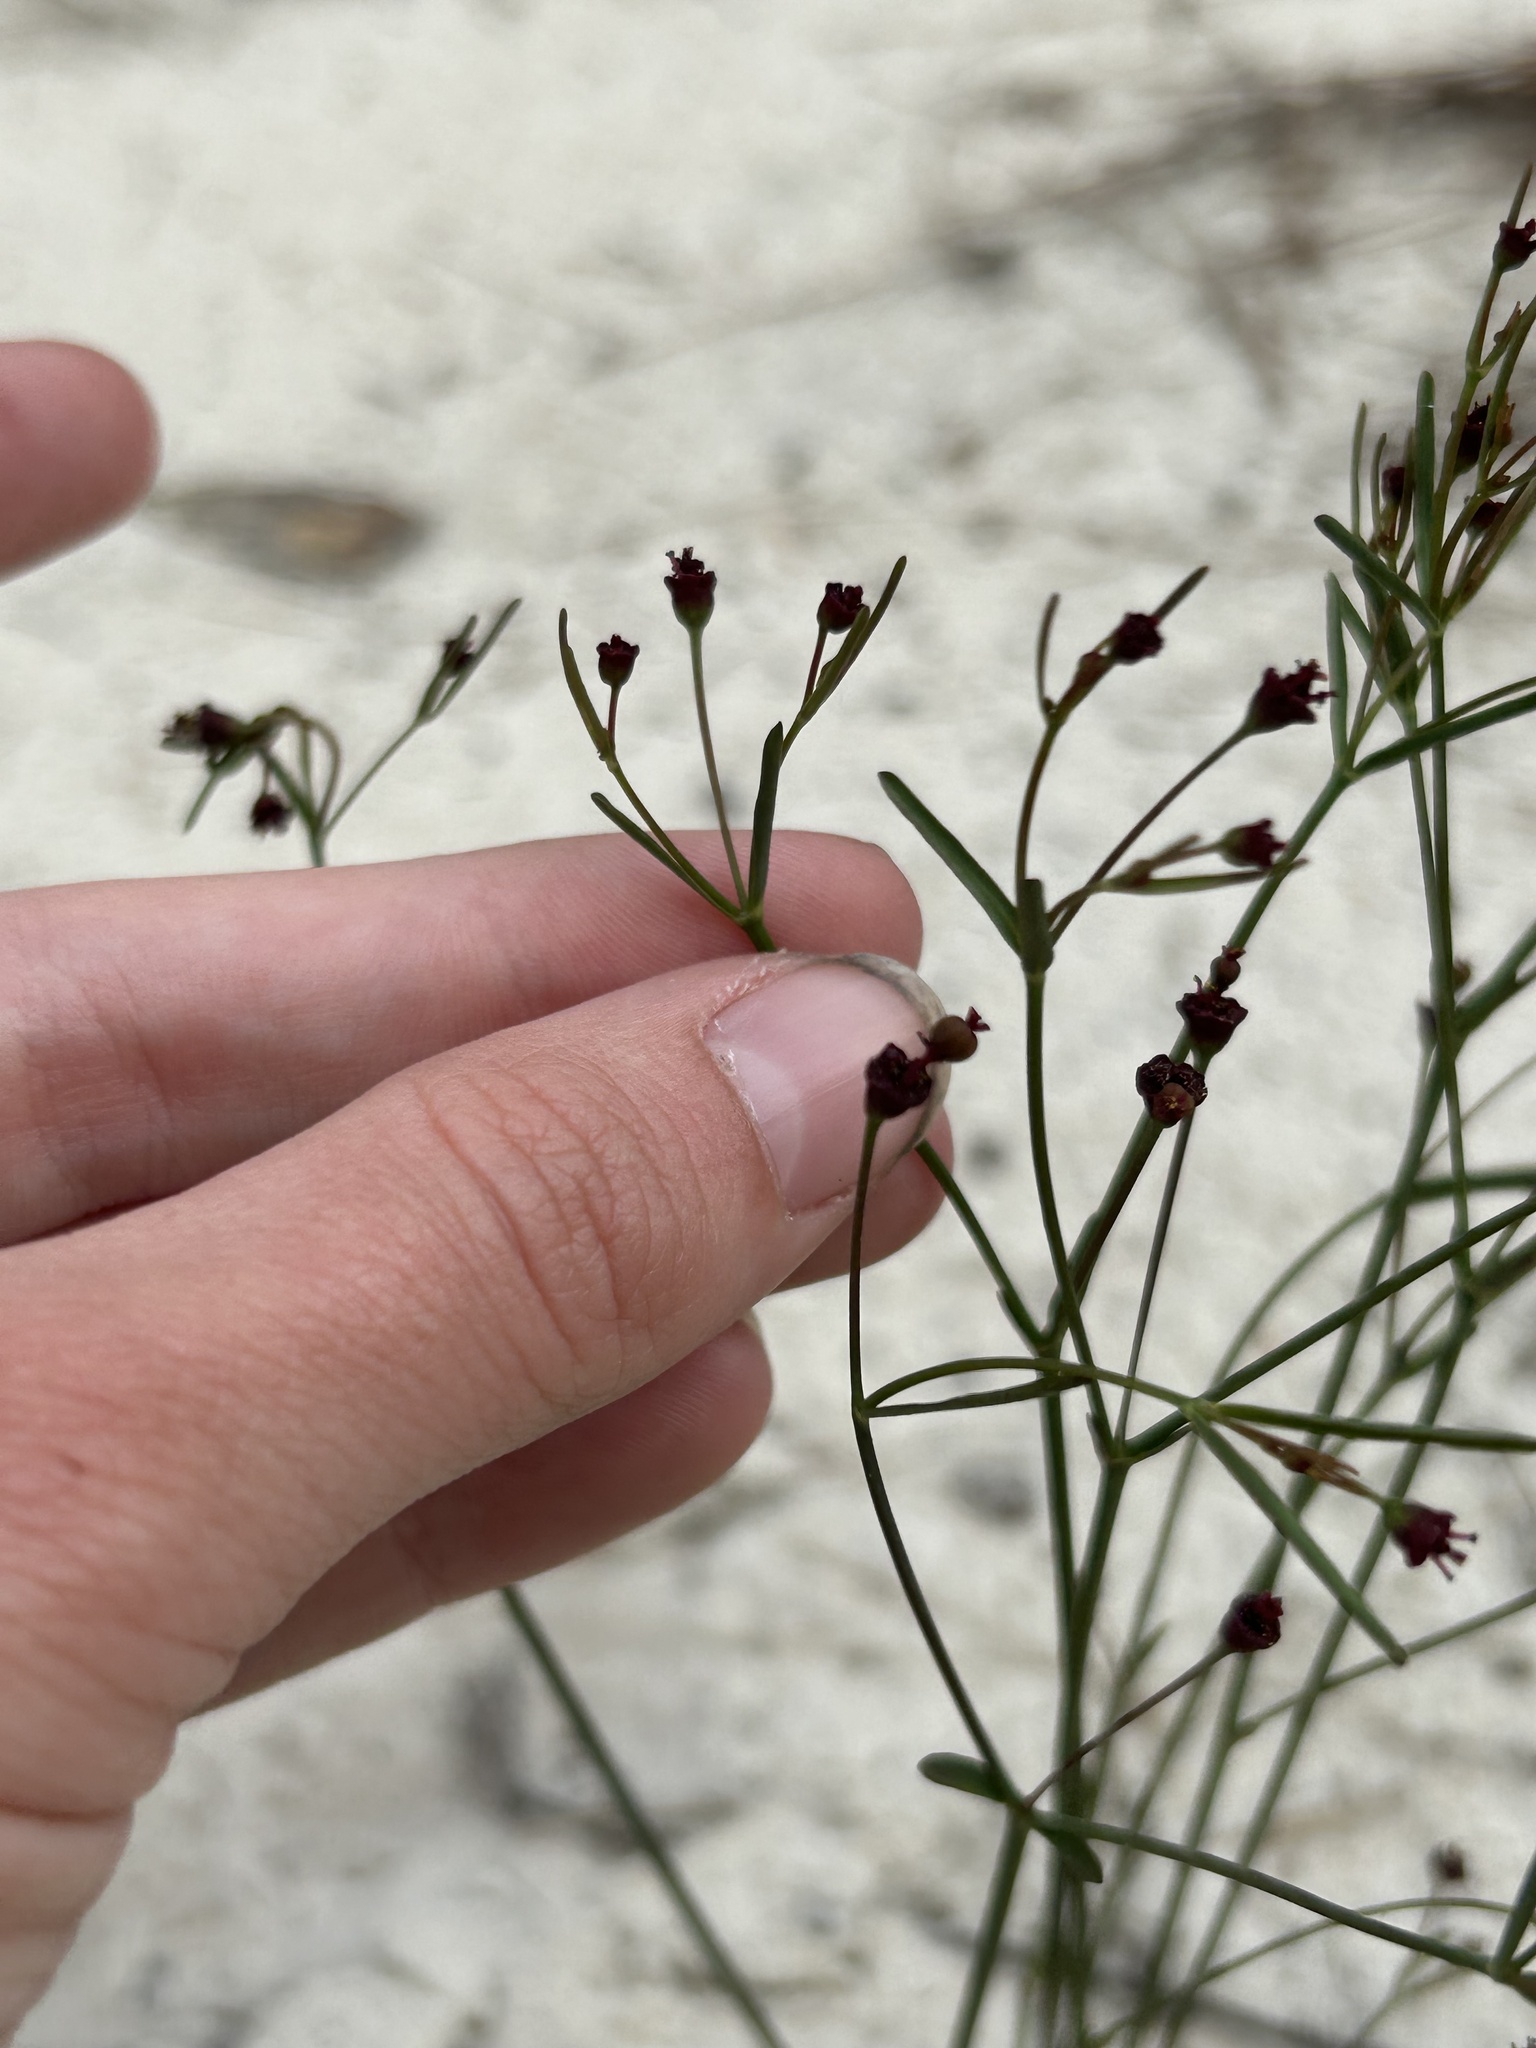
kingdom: Plantae
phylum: Tracheophyta
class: Magnoliopsida
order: Malpighiales
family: Euphorbiaceae
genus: Euphorbia
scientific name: Euphorbia exserta
